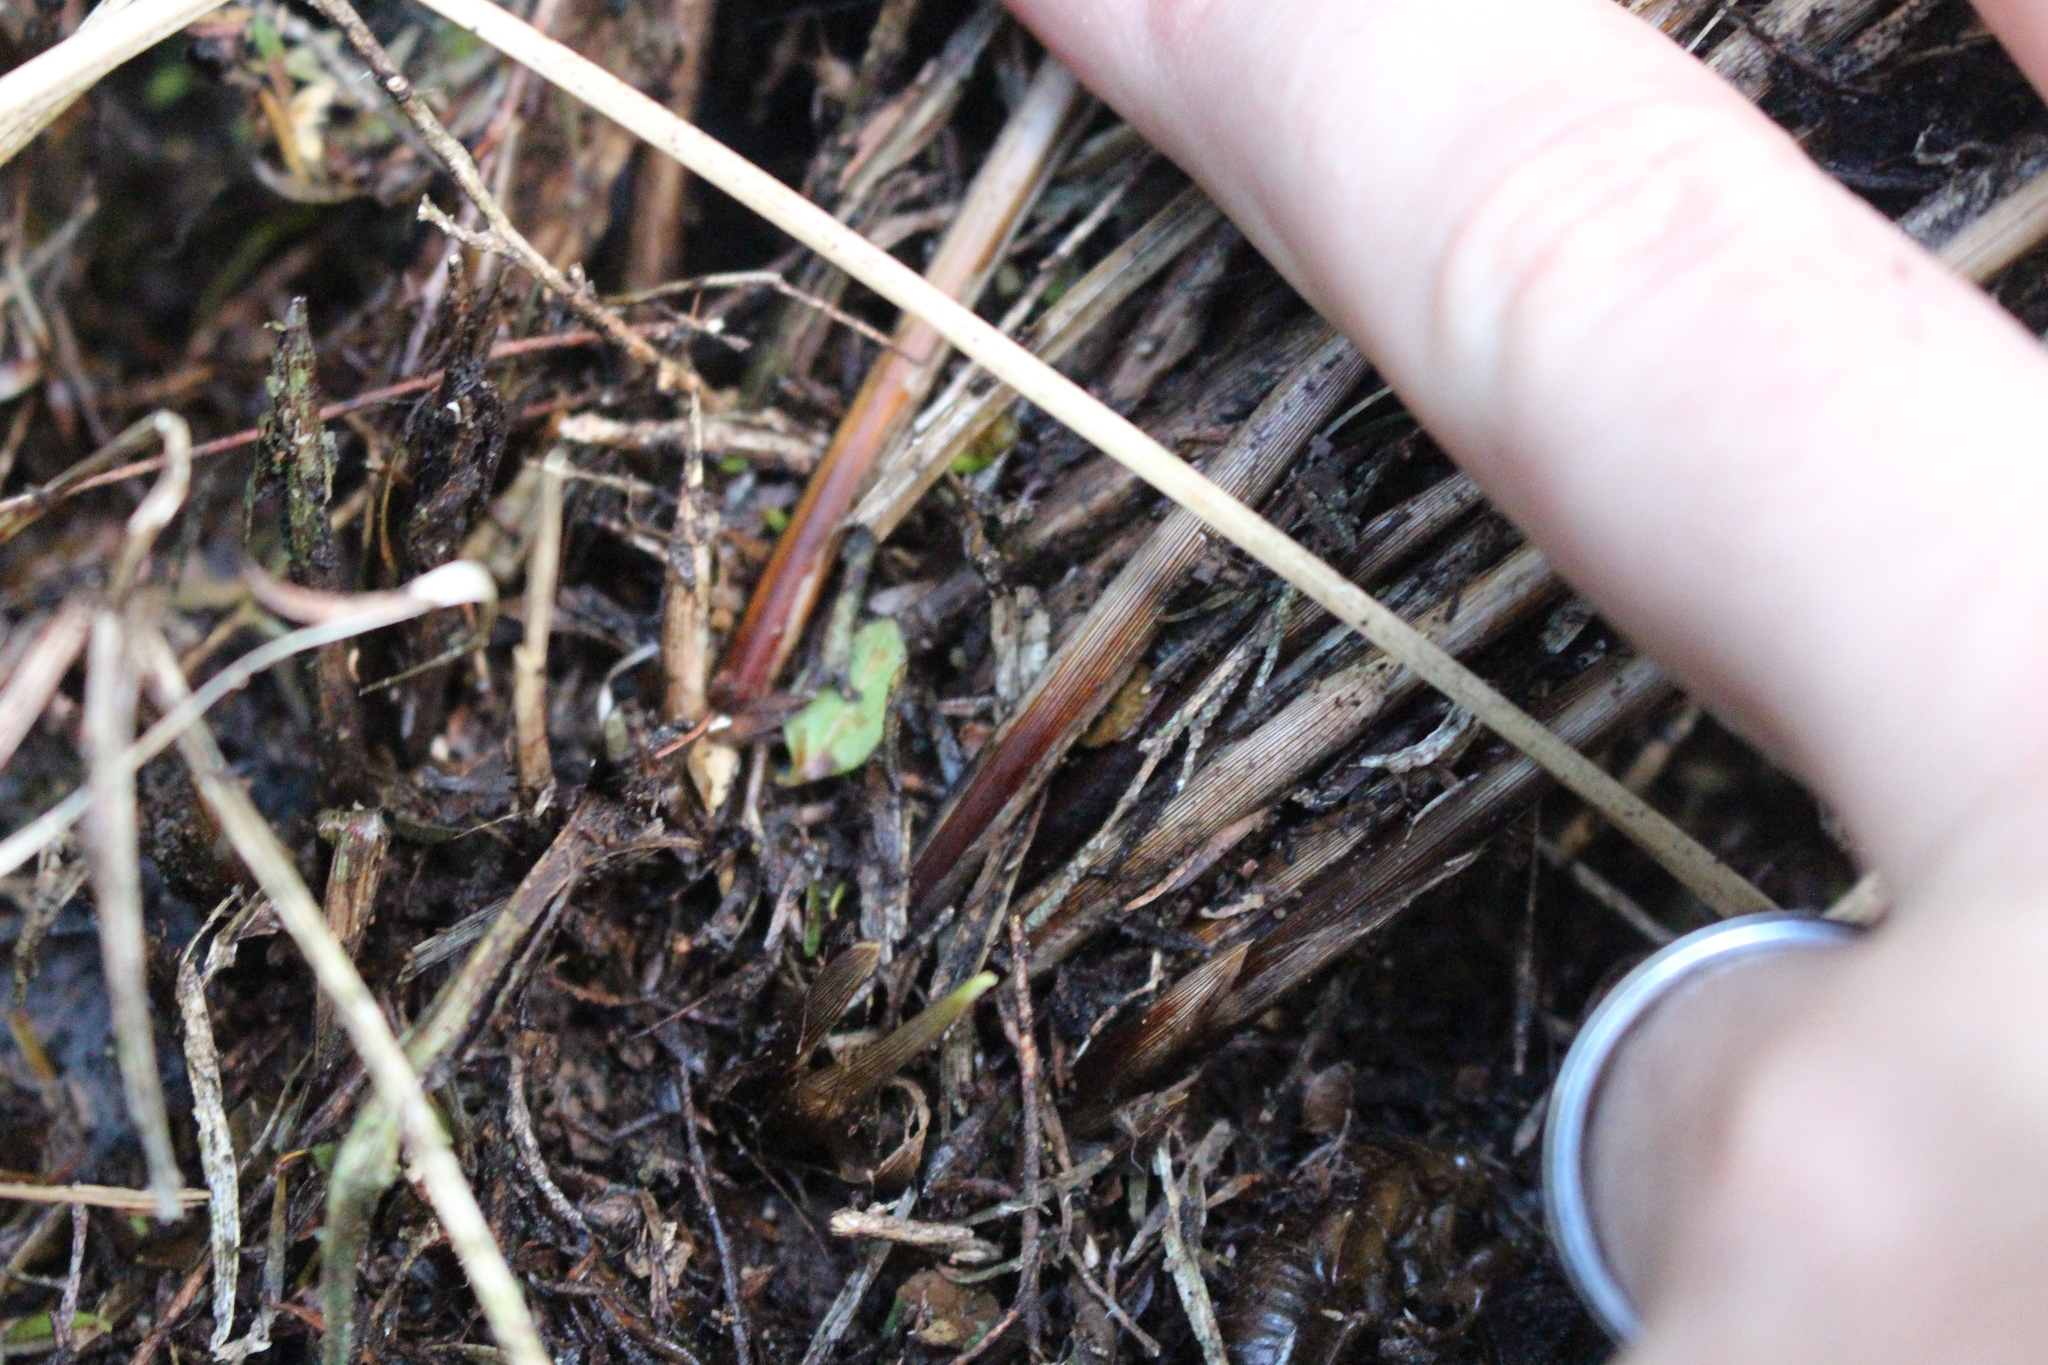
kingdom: Plantae
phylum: Tracheophyta
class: Liliopsida
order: Poales
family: Cyperaceae
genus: Carex
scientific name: Carex virgata
